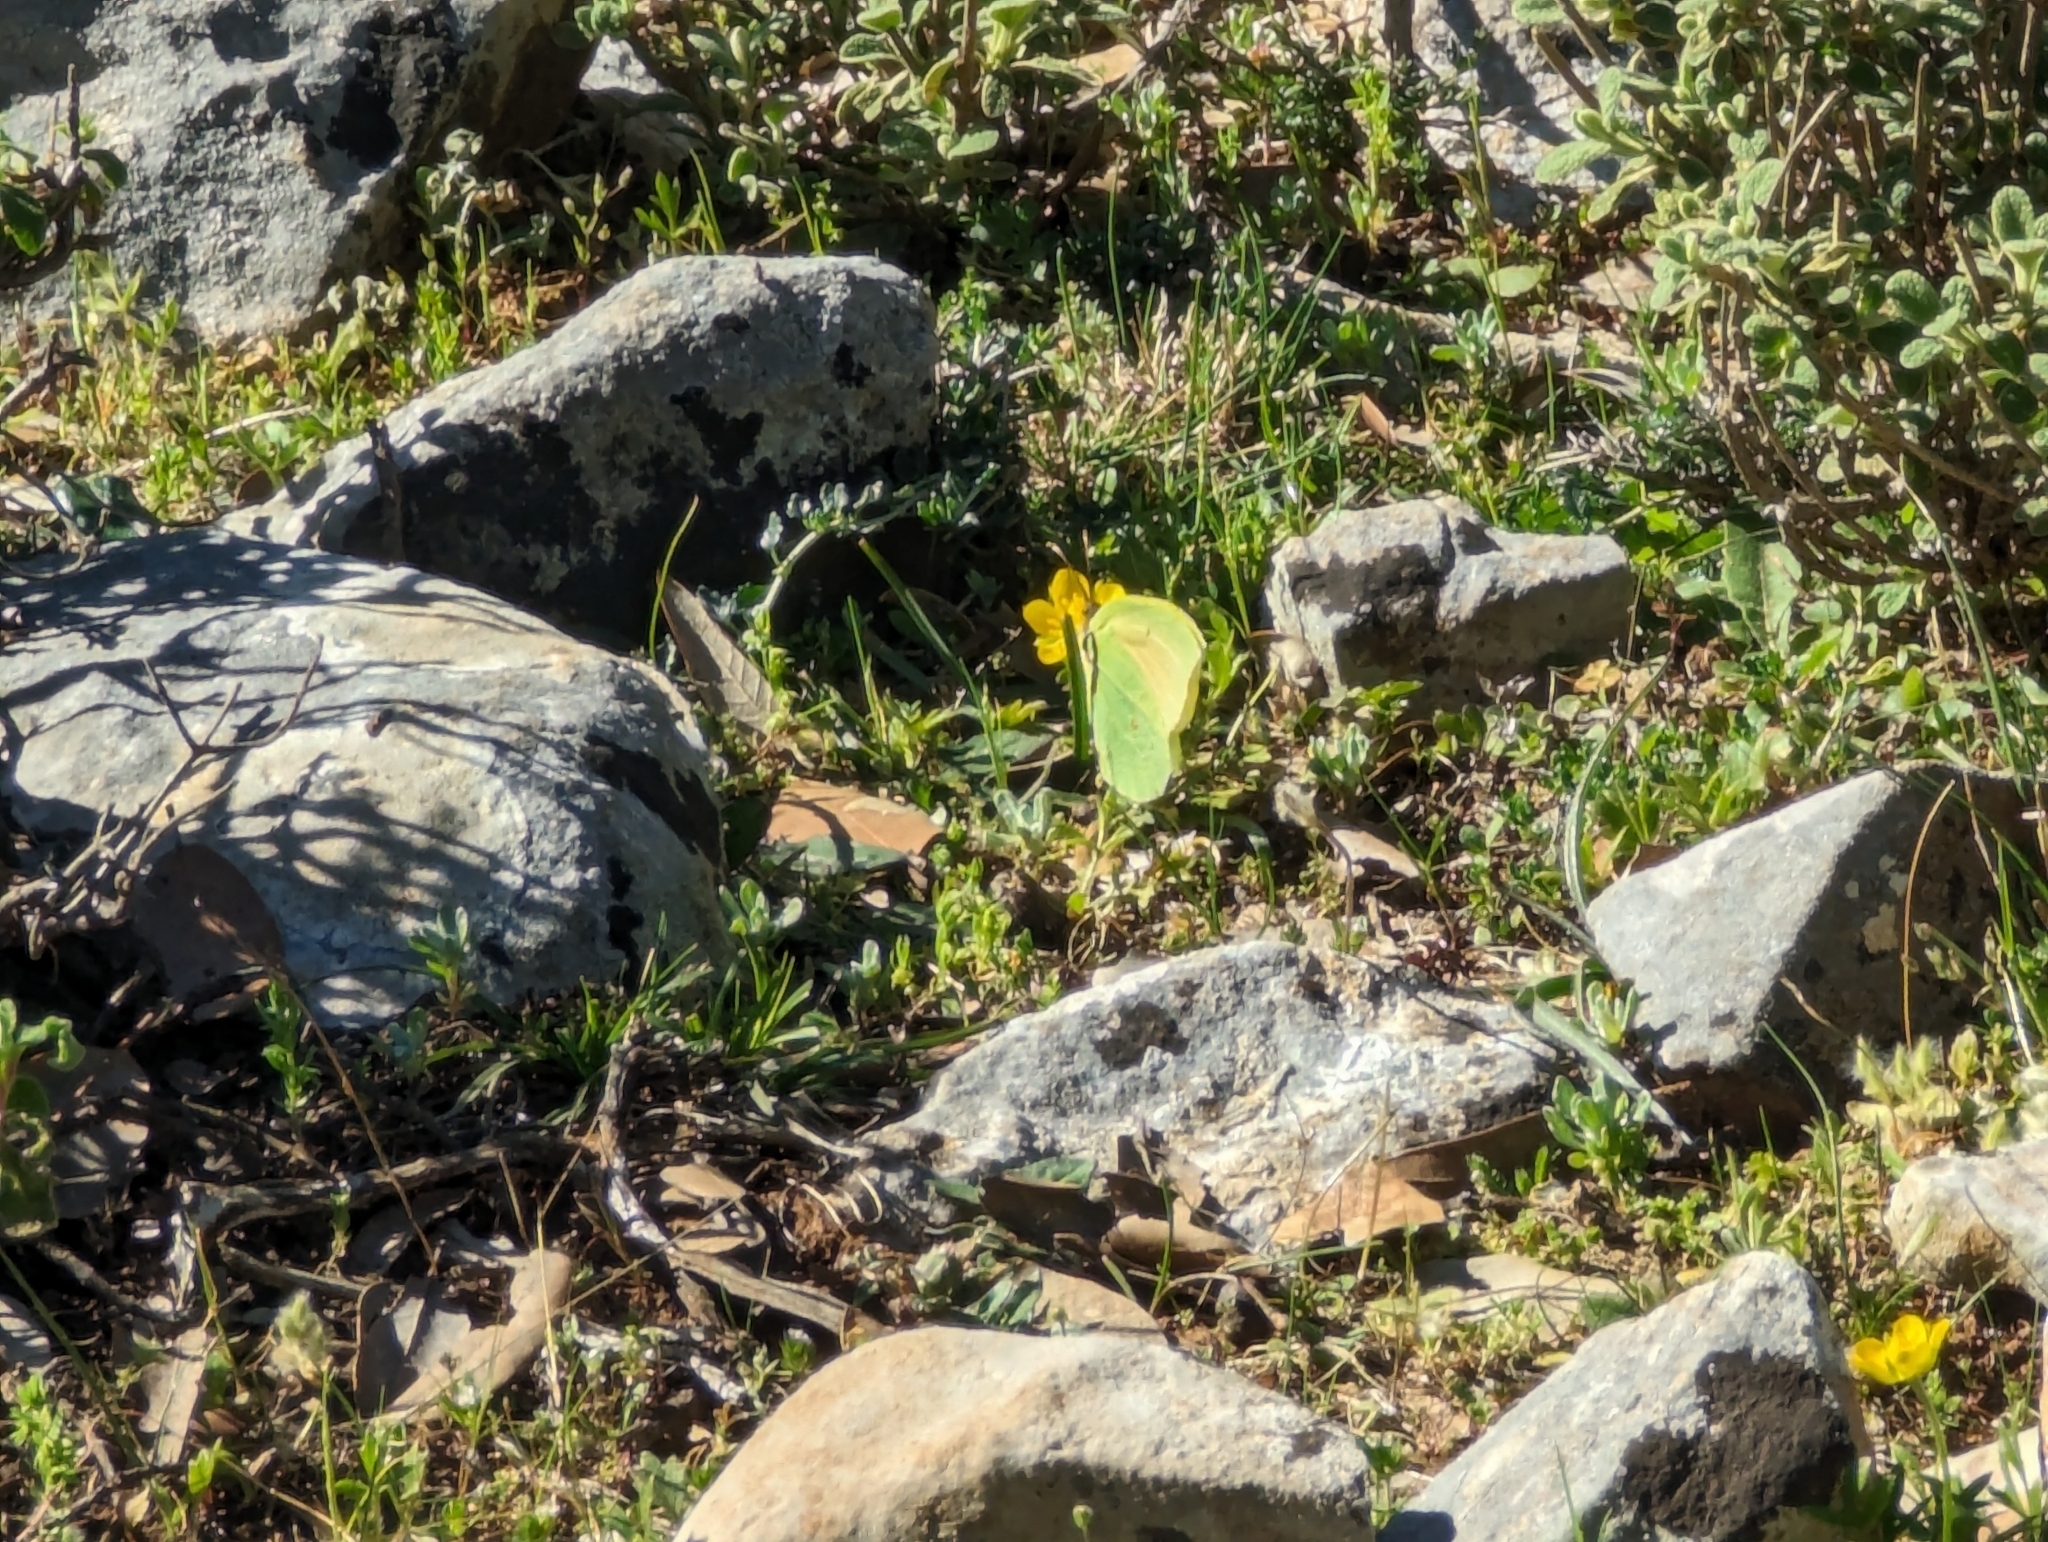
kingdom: Animalia
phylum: Arthropoda
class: Insecta
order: Lepidoptera
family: Pieridae
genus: Gonepteryx
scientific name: Gonepteryx cleopatra
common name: Cleopatra
